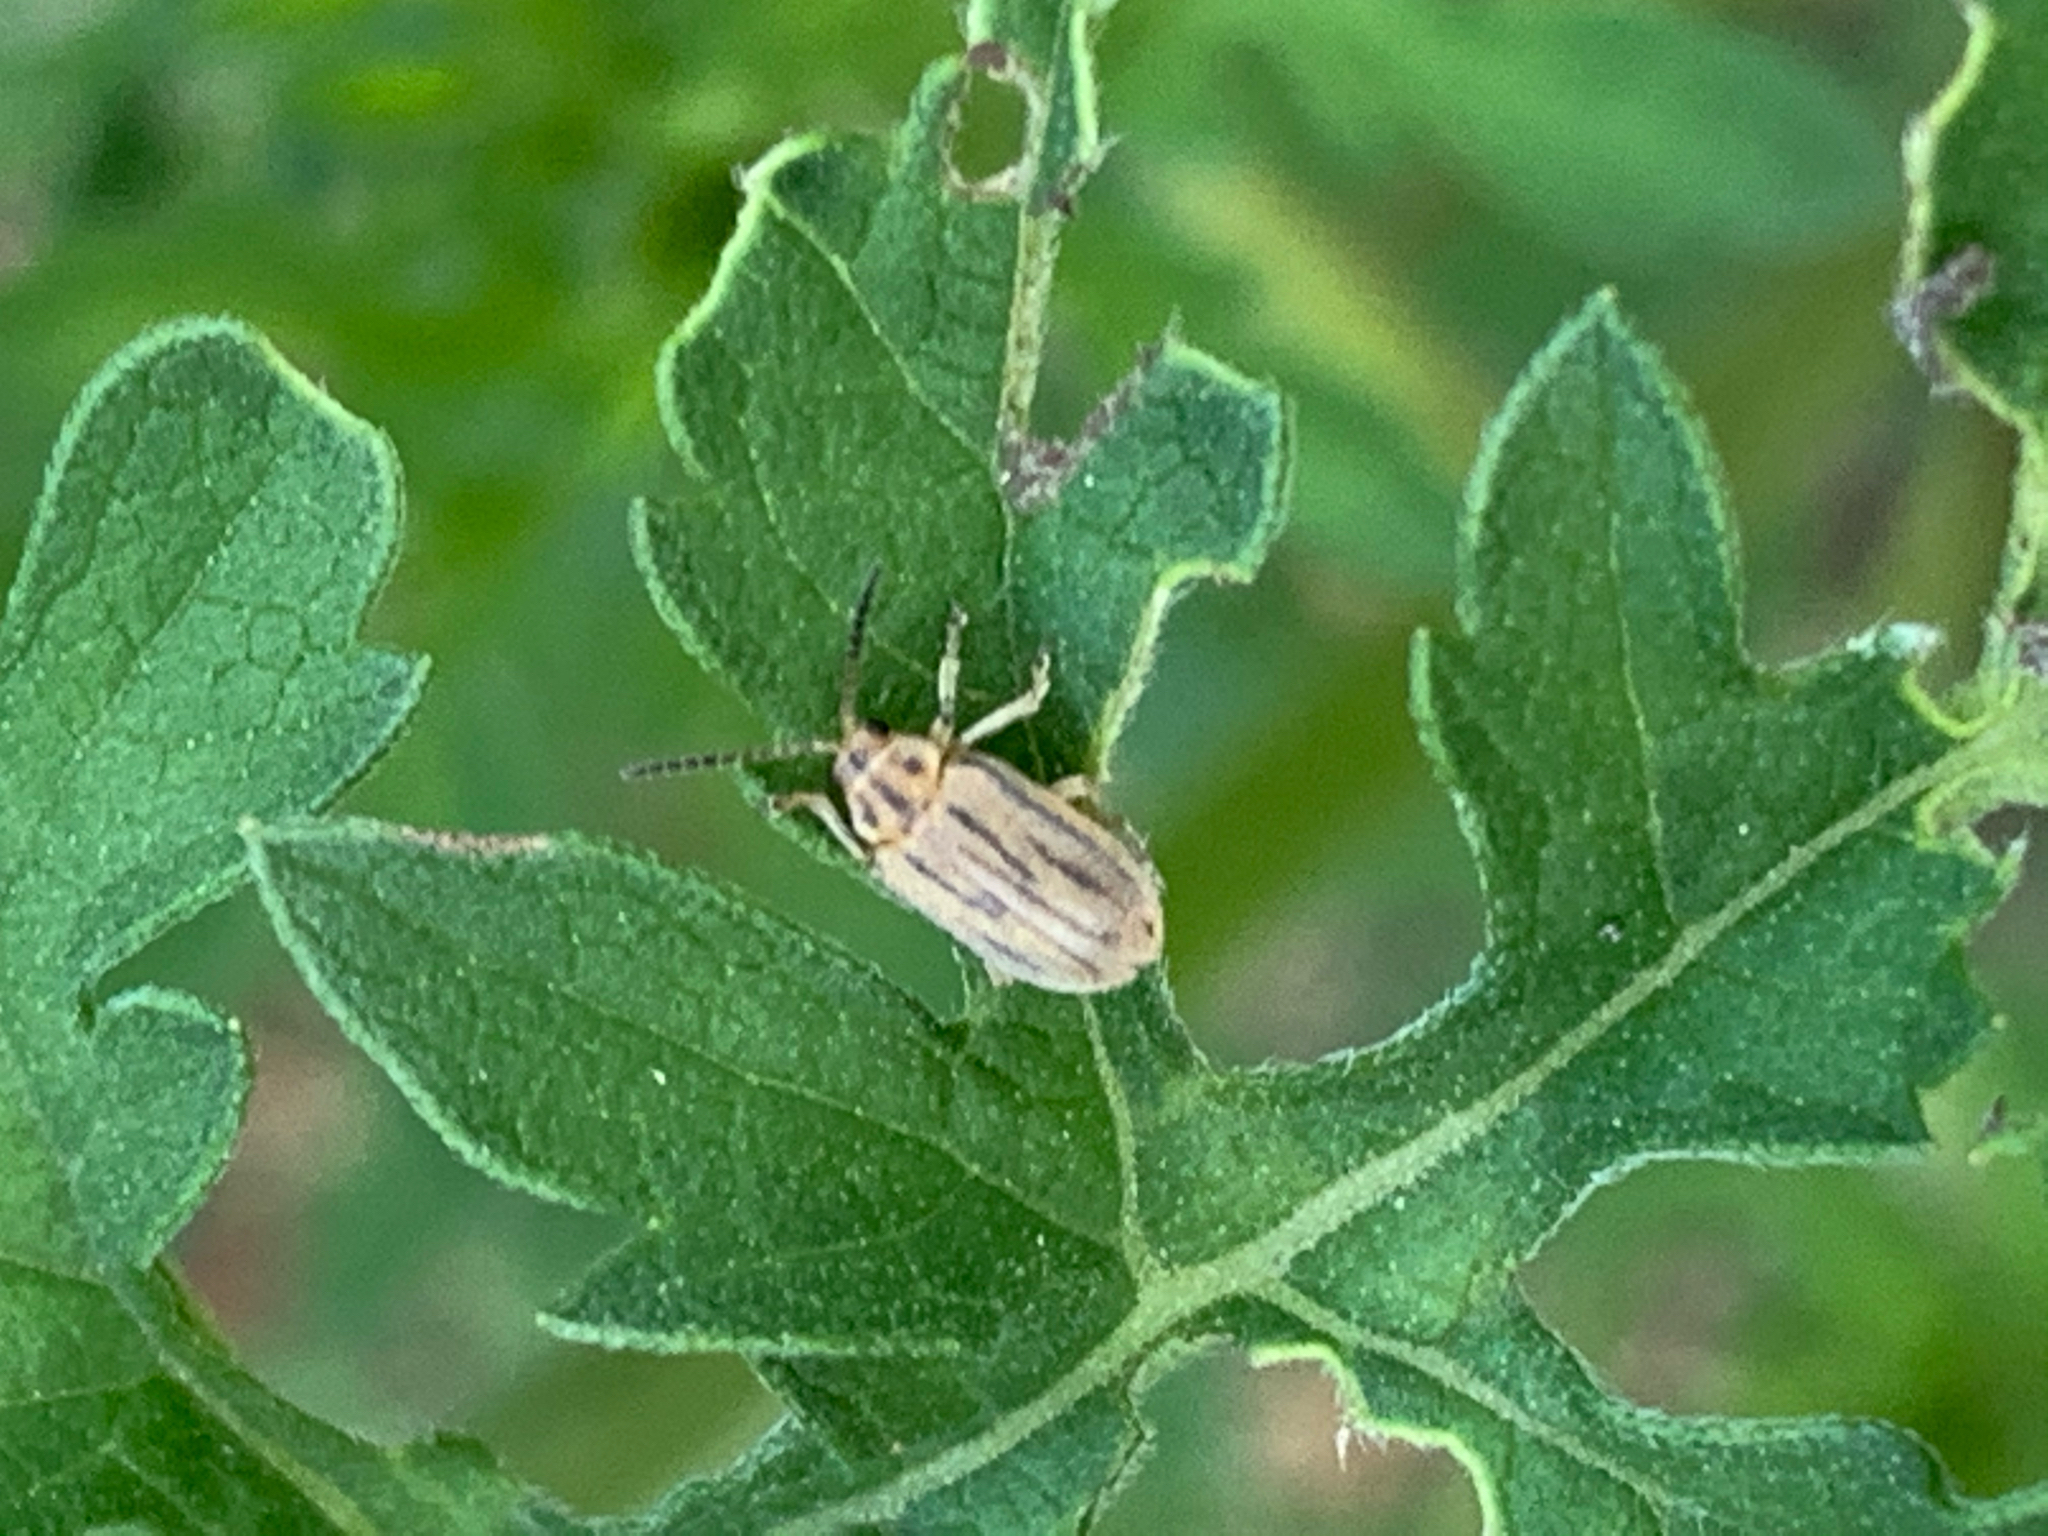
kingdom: Animalia
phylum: Arthropoda
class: Insecta
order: Coleoptera
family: Chrysomelidae
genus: Ophraella
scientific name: Ophraella communa
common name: Ragweed leaf beetle
